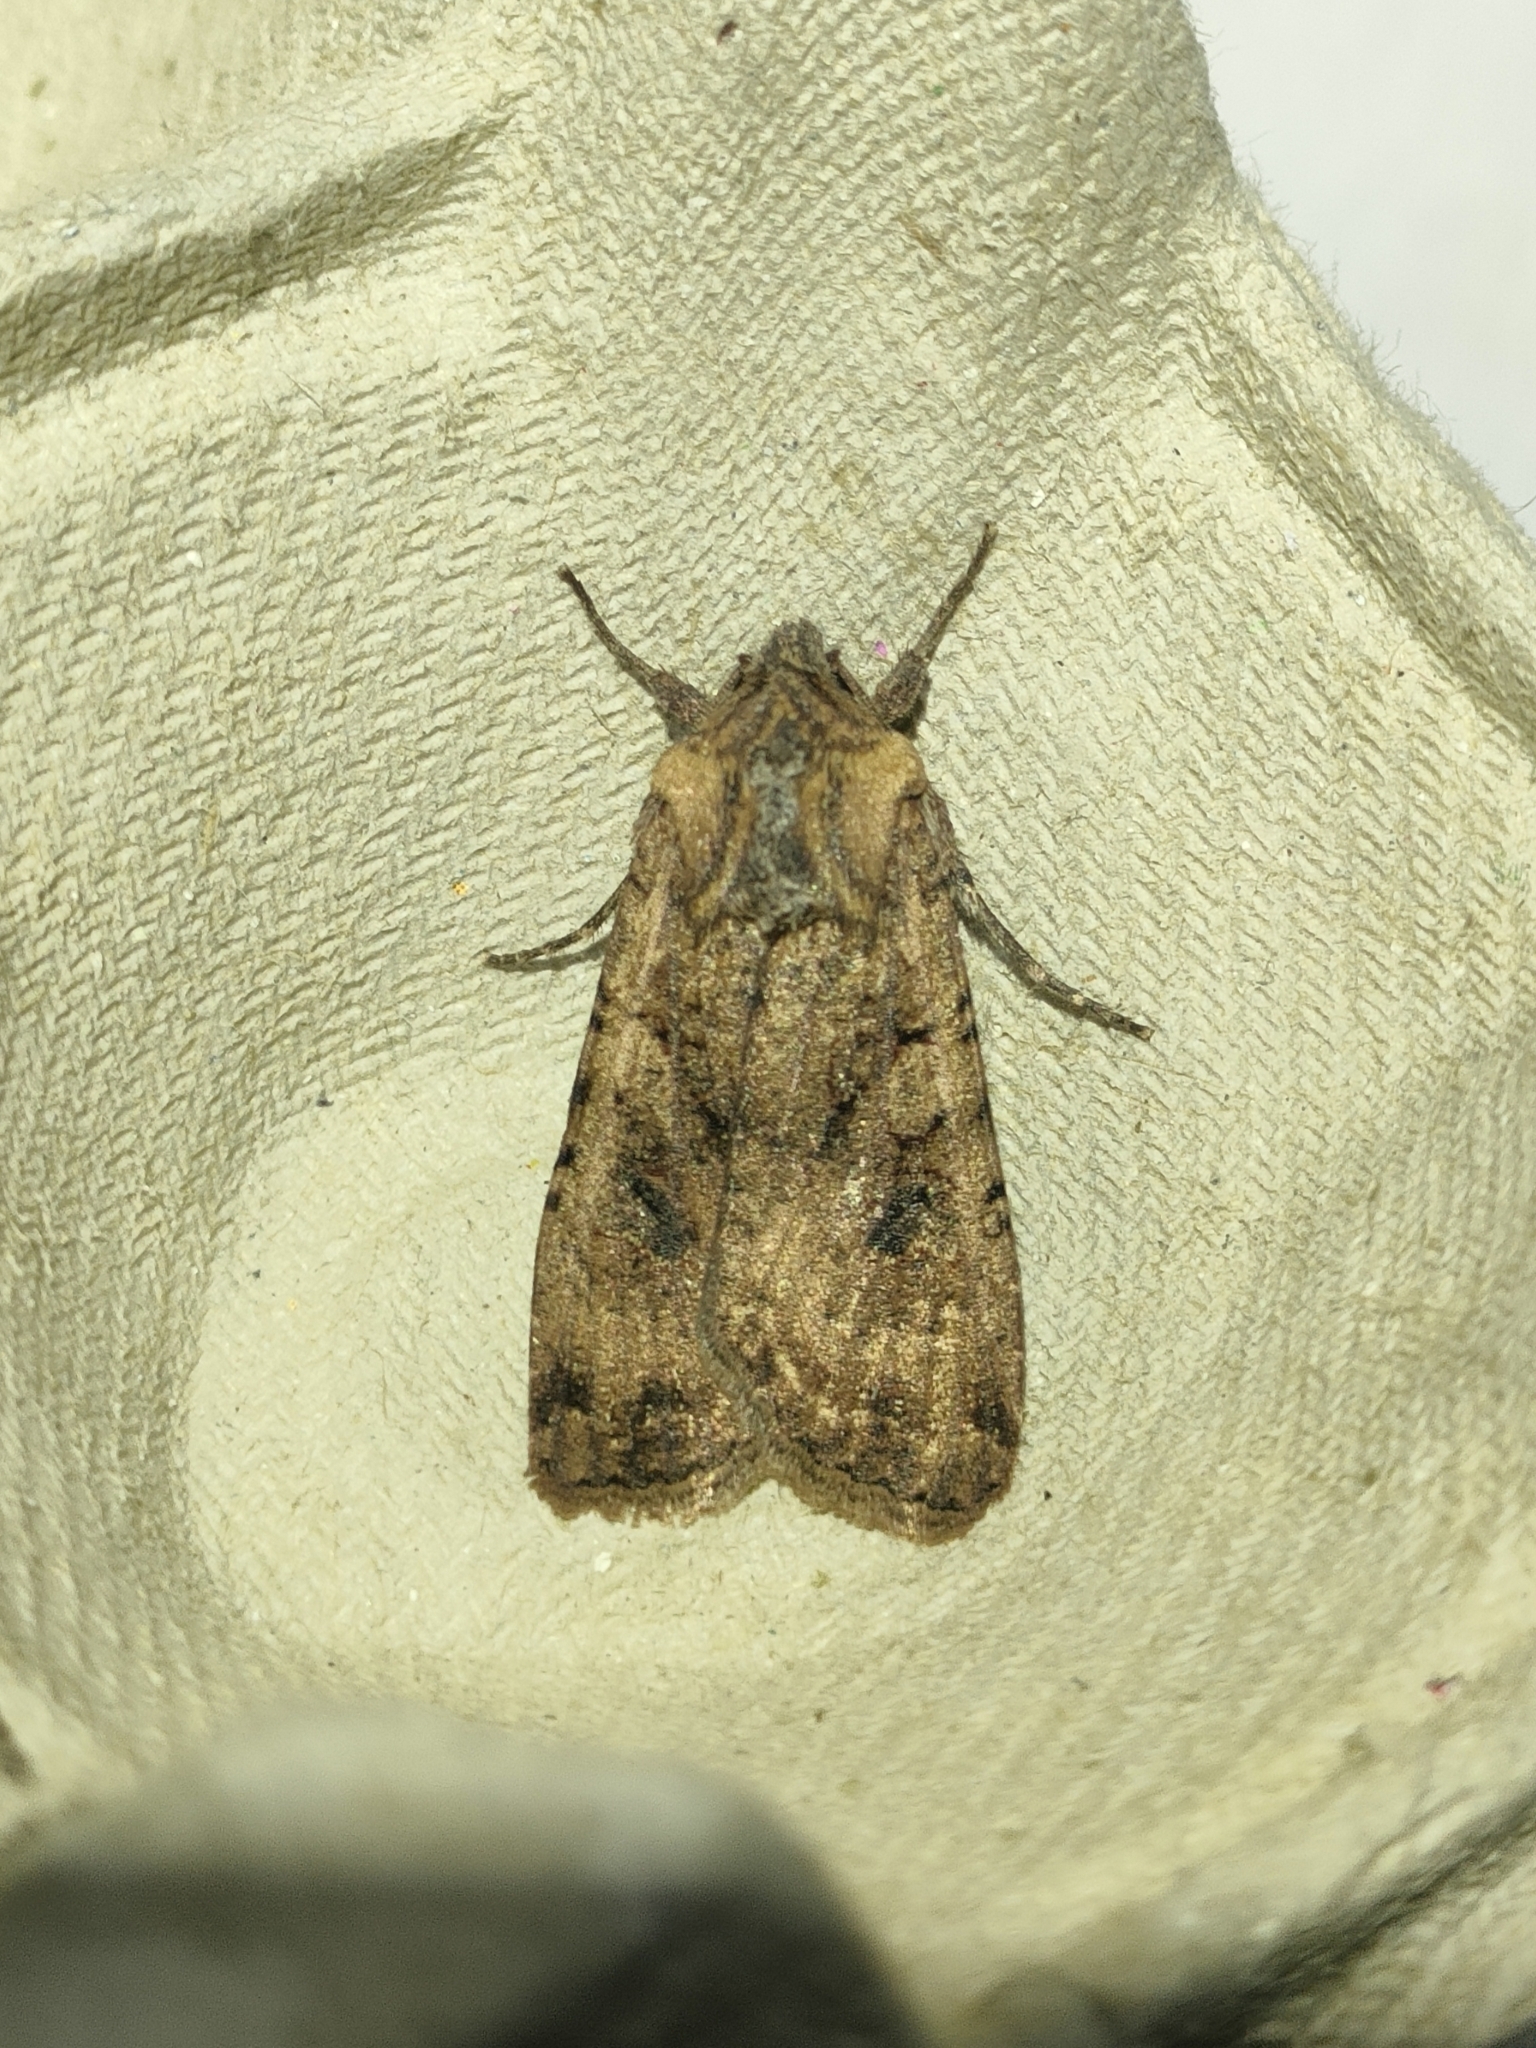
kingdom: Animalia
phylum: Arthropoda
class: Insecta
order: Lepidoptera
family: Noctuidae
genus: Peridroma
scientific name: Peridroma saucia
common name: Pearly underwing
